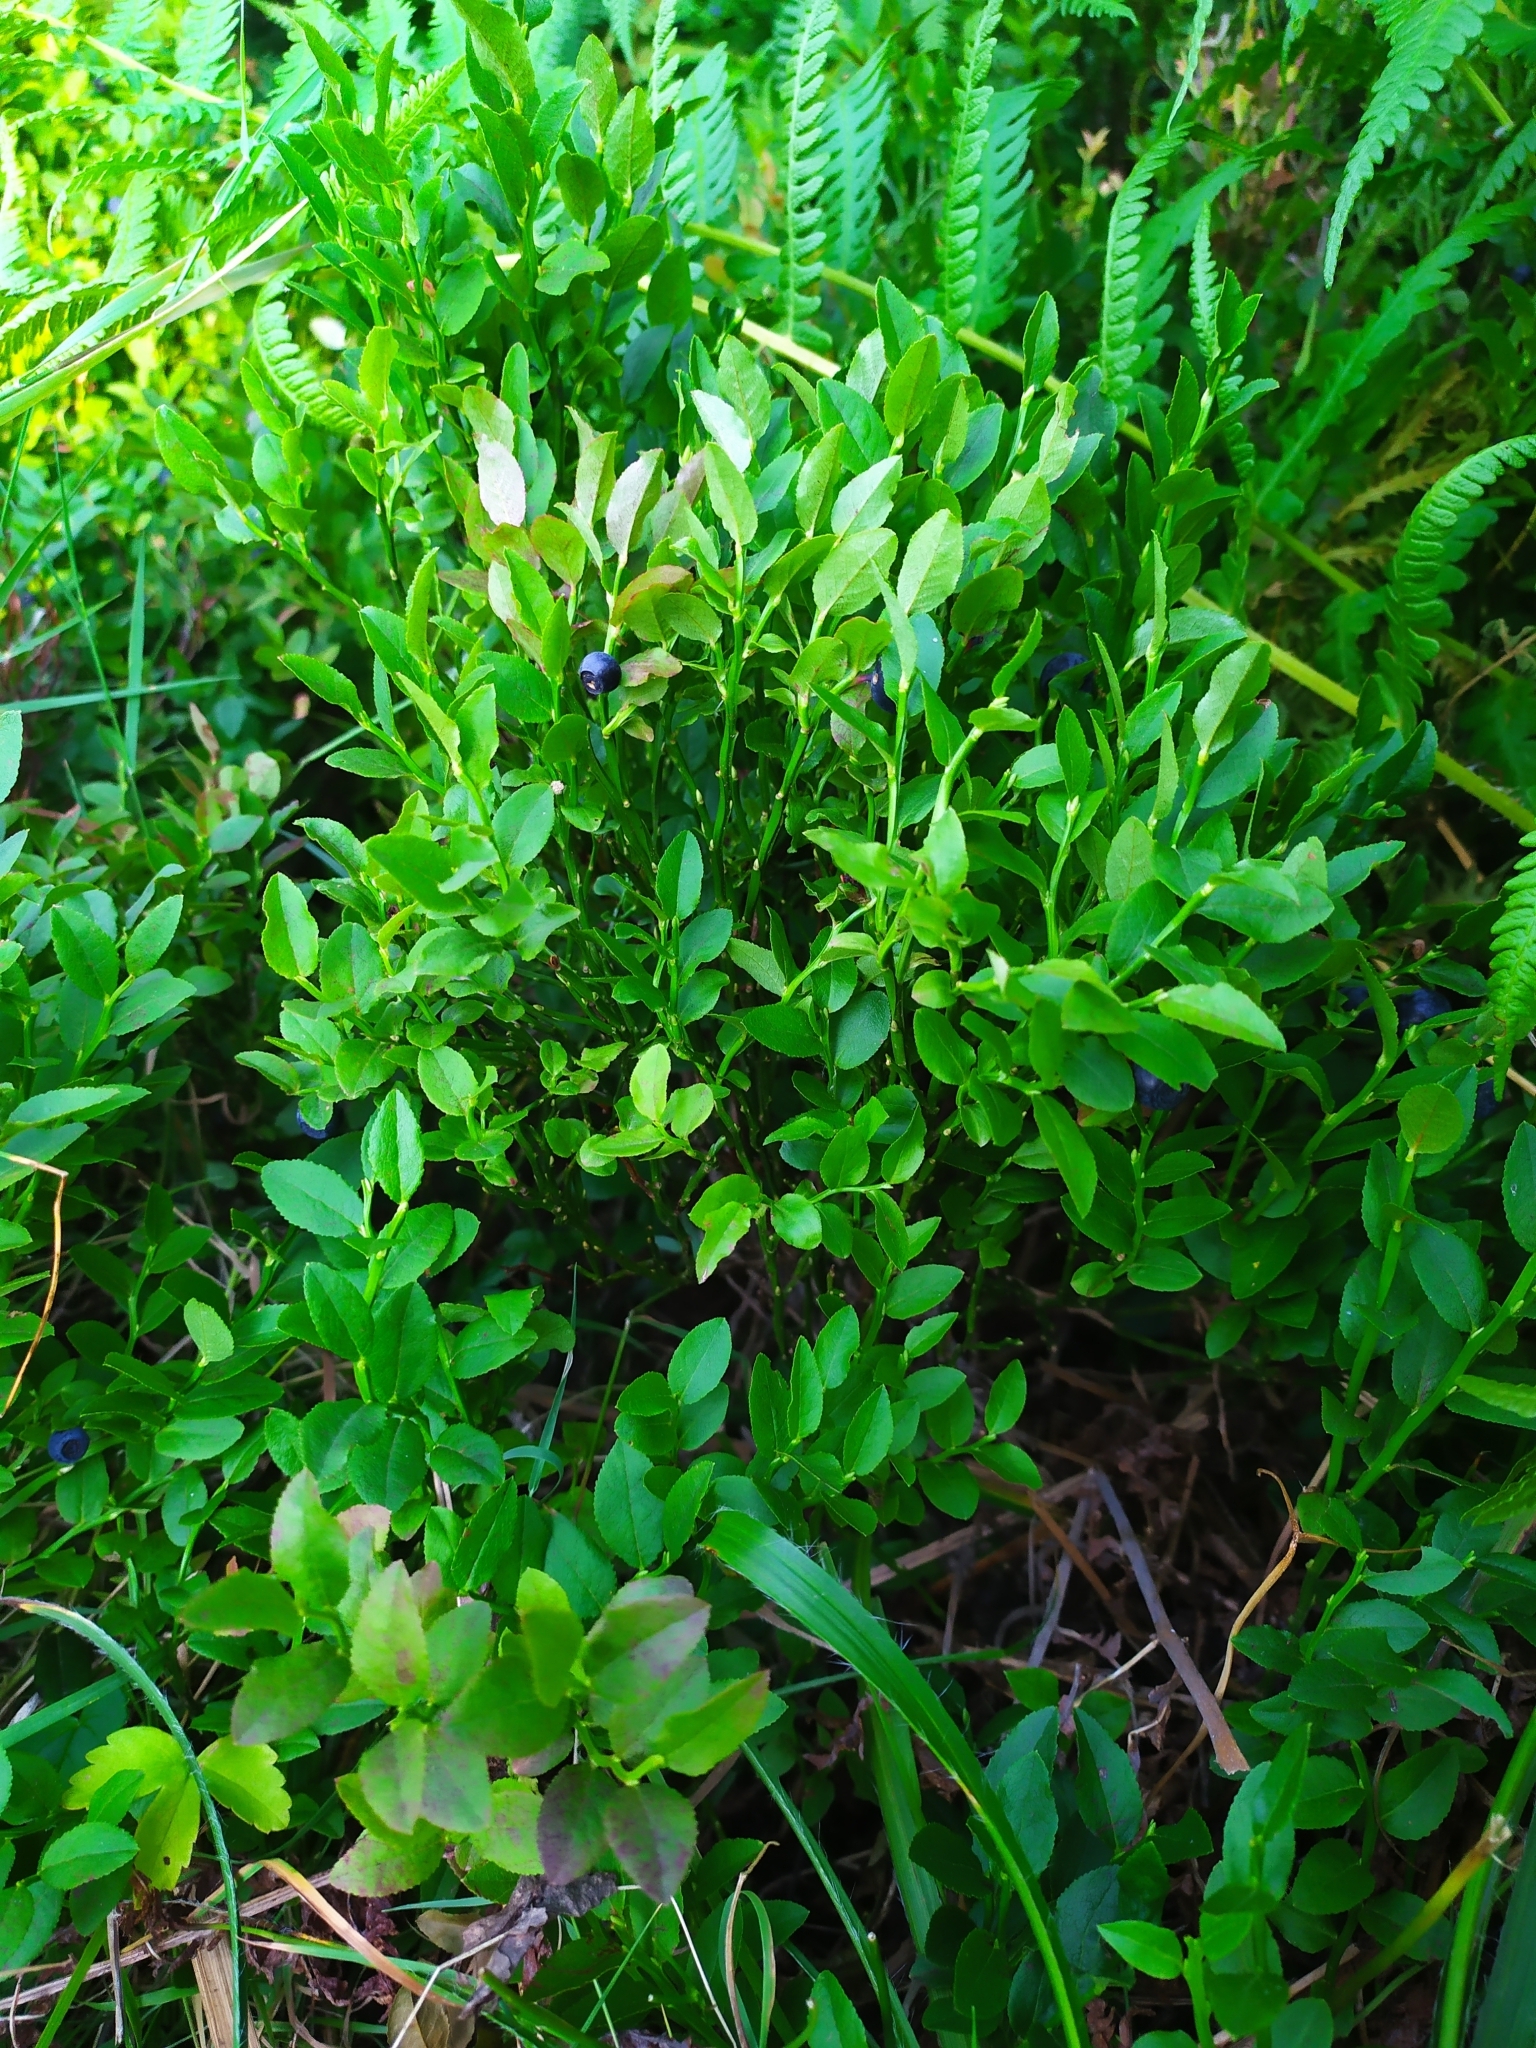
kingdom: Plantae
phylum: Tracheophyta
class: Magnoliopsida
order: Ericales
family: Ericaceae
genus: Vaccinium
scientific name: Vaccinium myrtillus
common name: Bilberry
